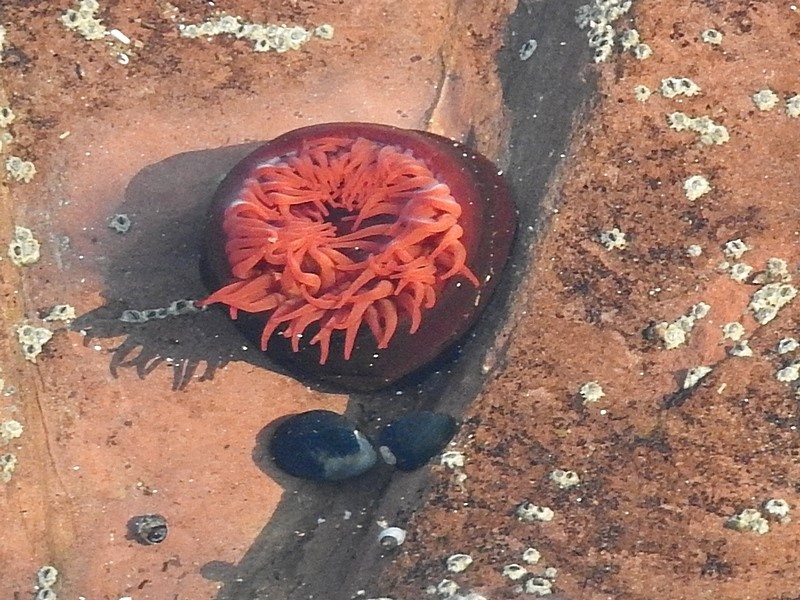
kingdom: Animalia
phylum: Cnidaria
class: Anthozoa
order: Actiniaria
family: Actiniidae
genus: Actinia
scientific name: Actinia tenebrosa
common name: Waratah anemone
